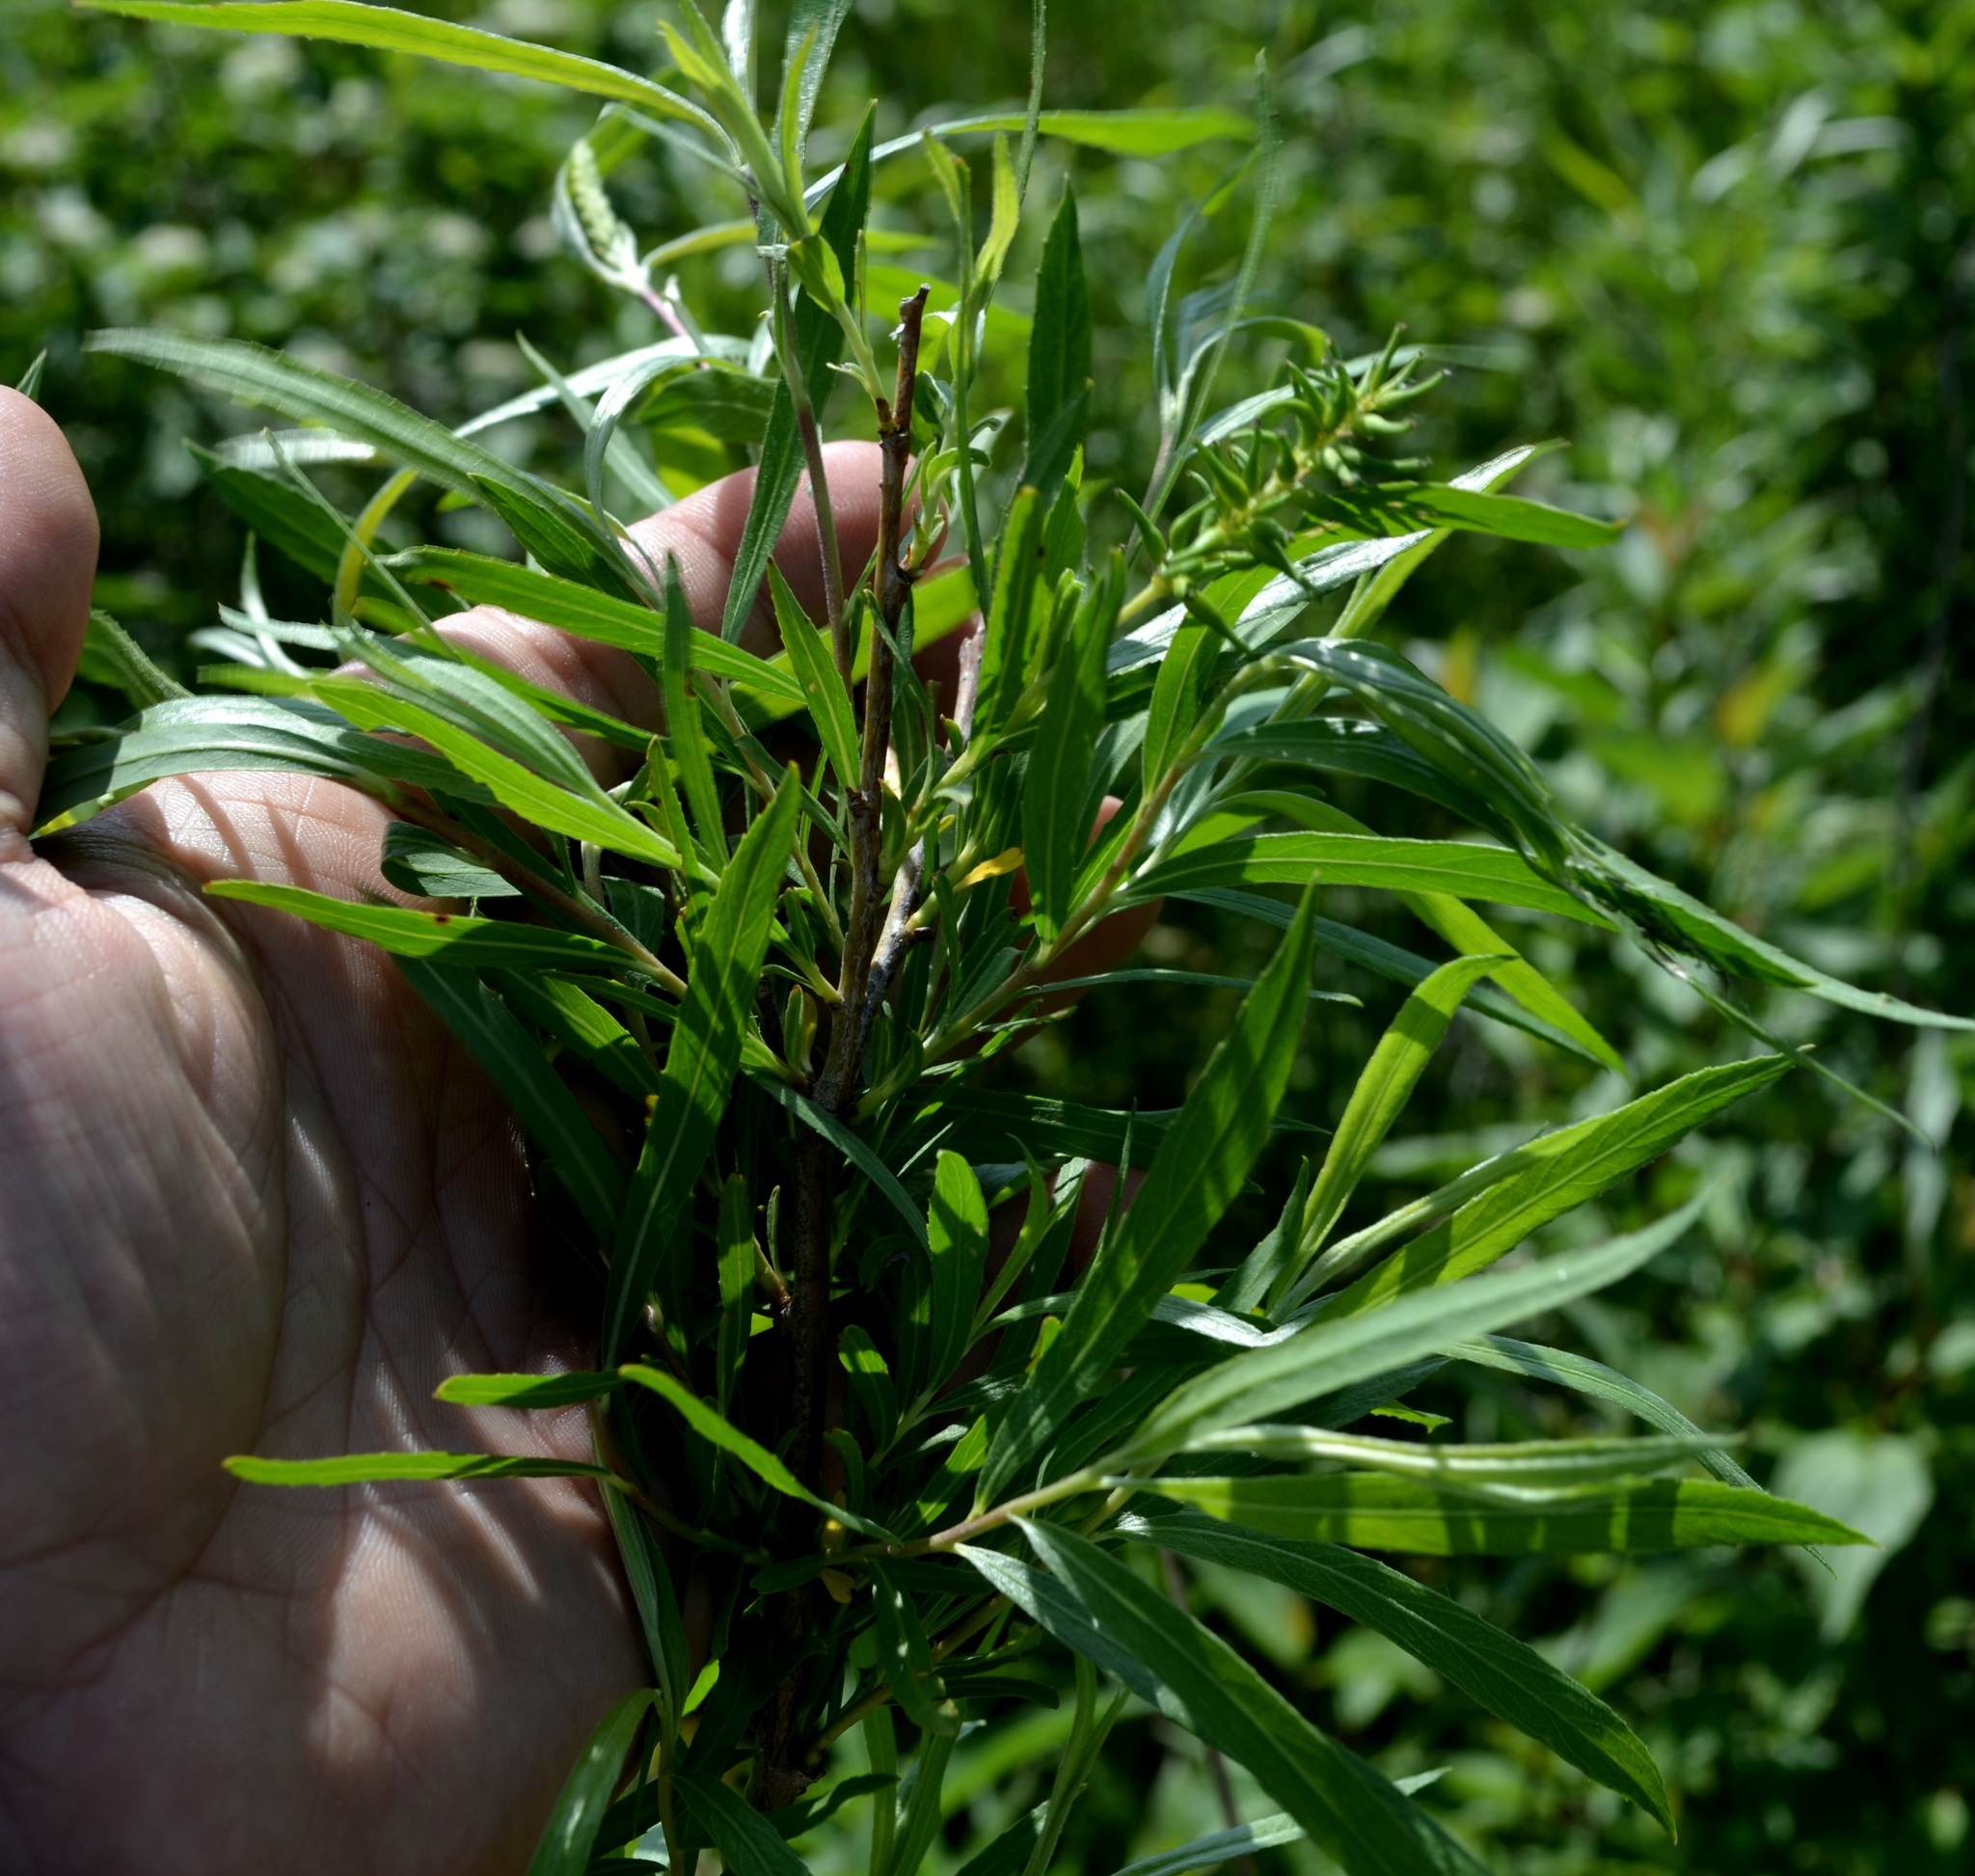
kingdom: Plantae
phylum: Tracheophyta
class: Magnoliopsida
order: Malpighiales
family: Salicaceae
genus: Salix
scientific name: Salix interior
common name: Sandbar willow
